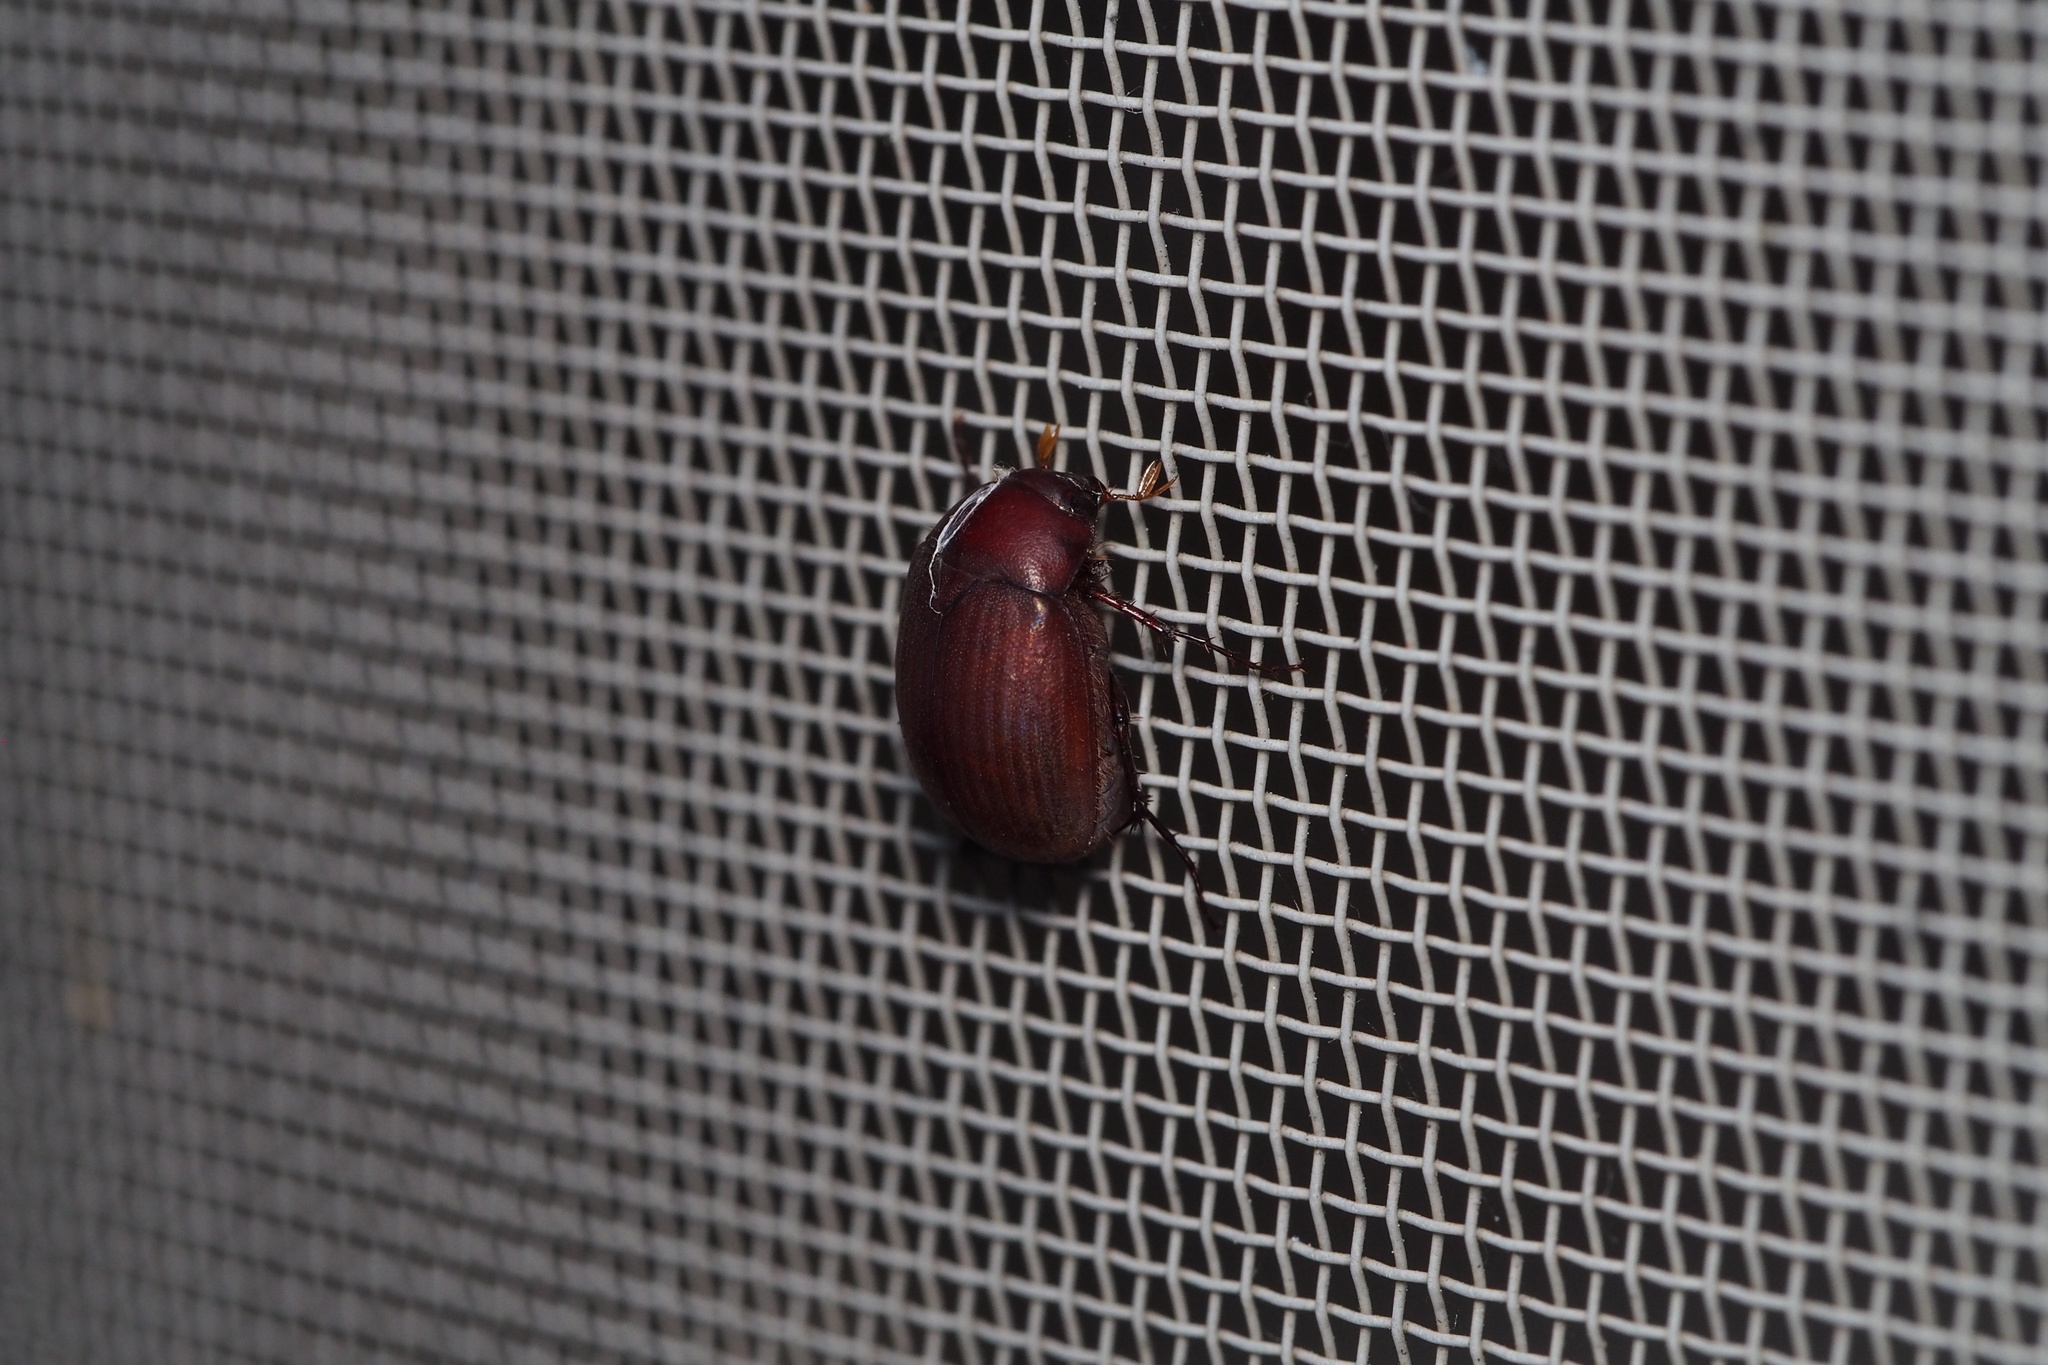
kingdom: Animalia
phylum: Arthropoda
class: Insecta
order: Coleoptera
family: Scarabaeidae
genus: Maladera
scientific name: Maladera formosae
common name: Asiatic garden beetle
